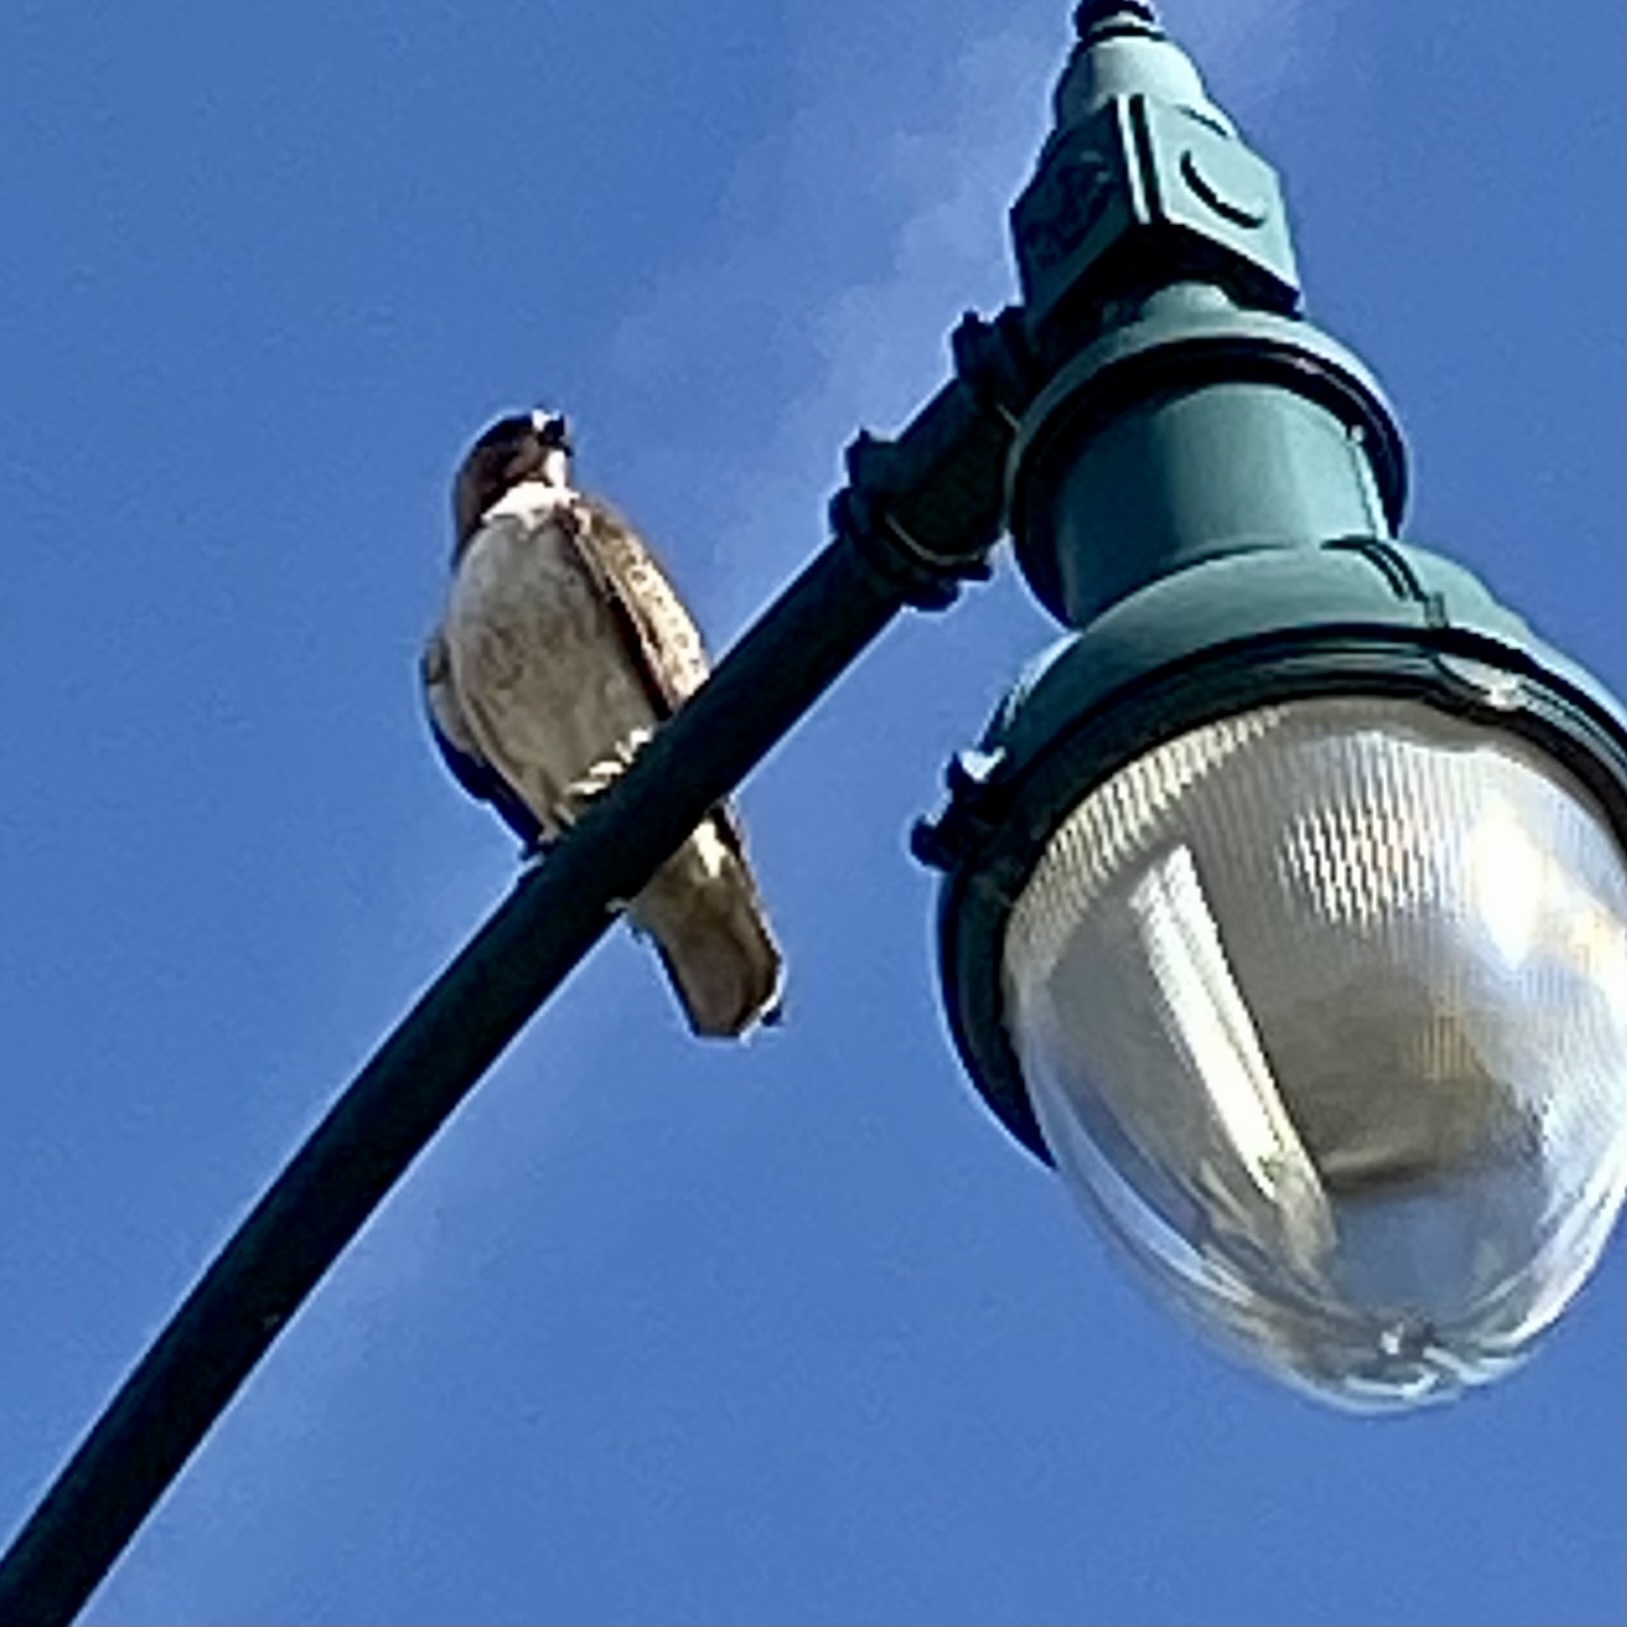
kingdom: Animalia
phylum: Chordata
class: Aves
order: Accipitriformes
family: Accipitridae
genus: Buteo
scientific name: Buteo jamaicensis
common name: Red-tailed hawk
